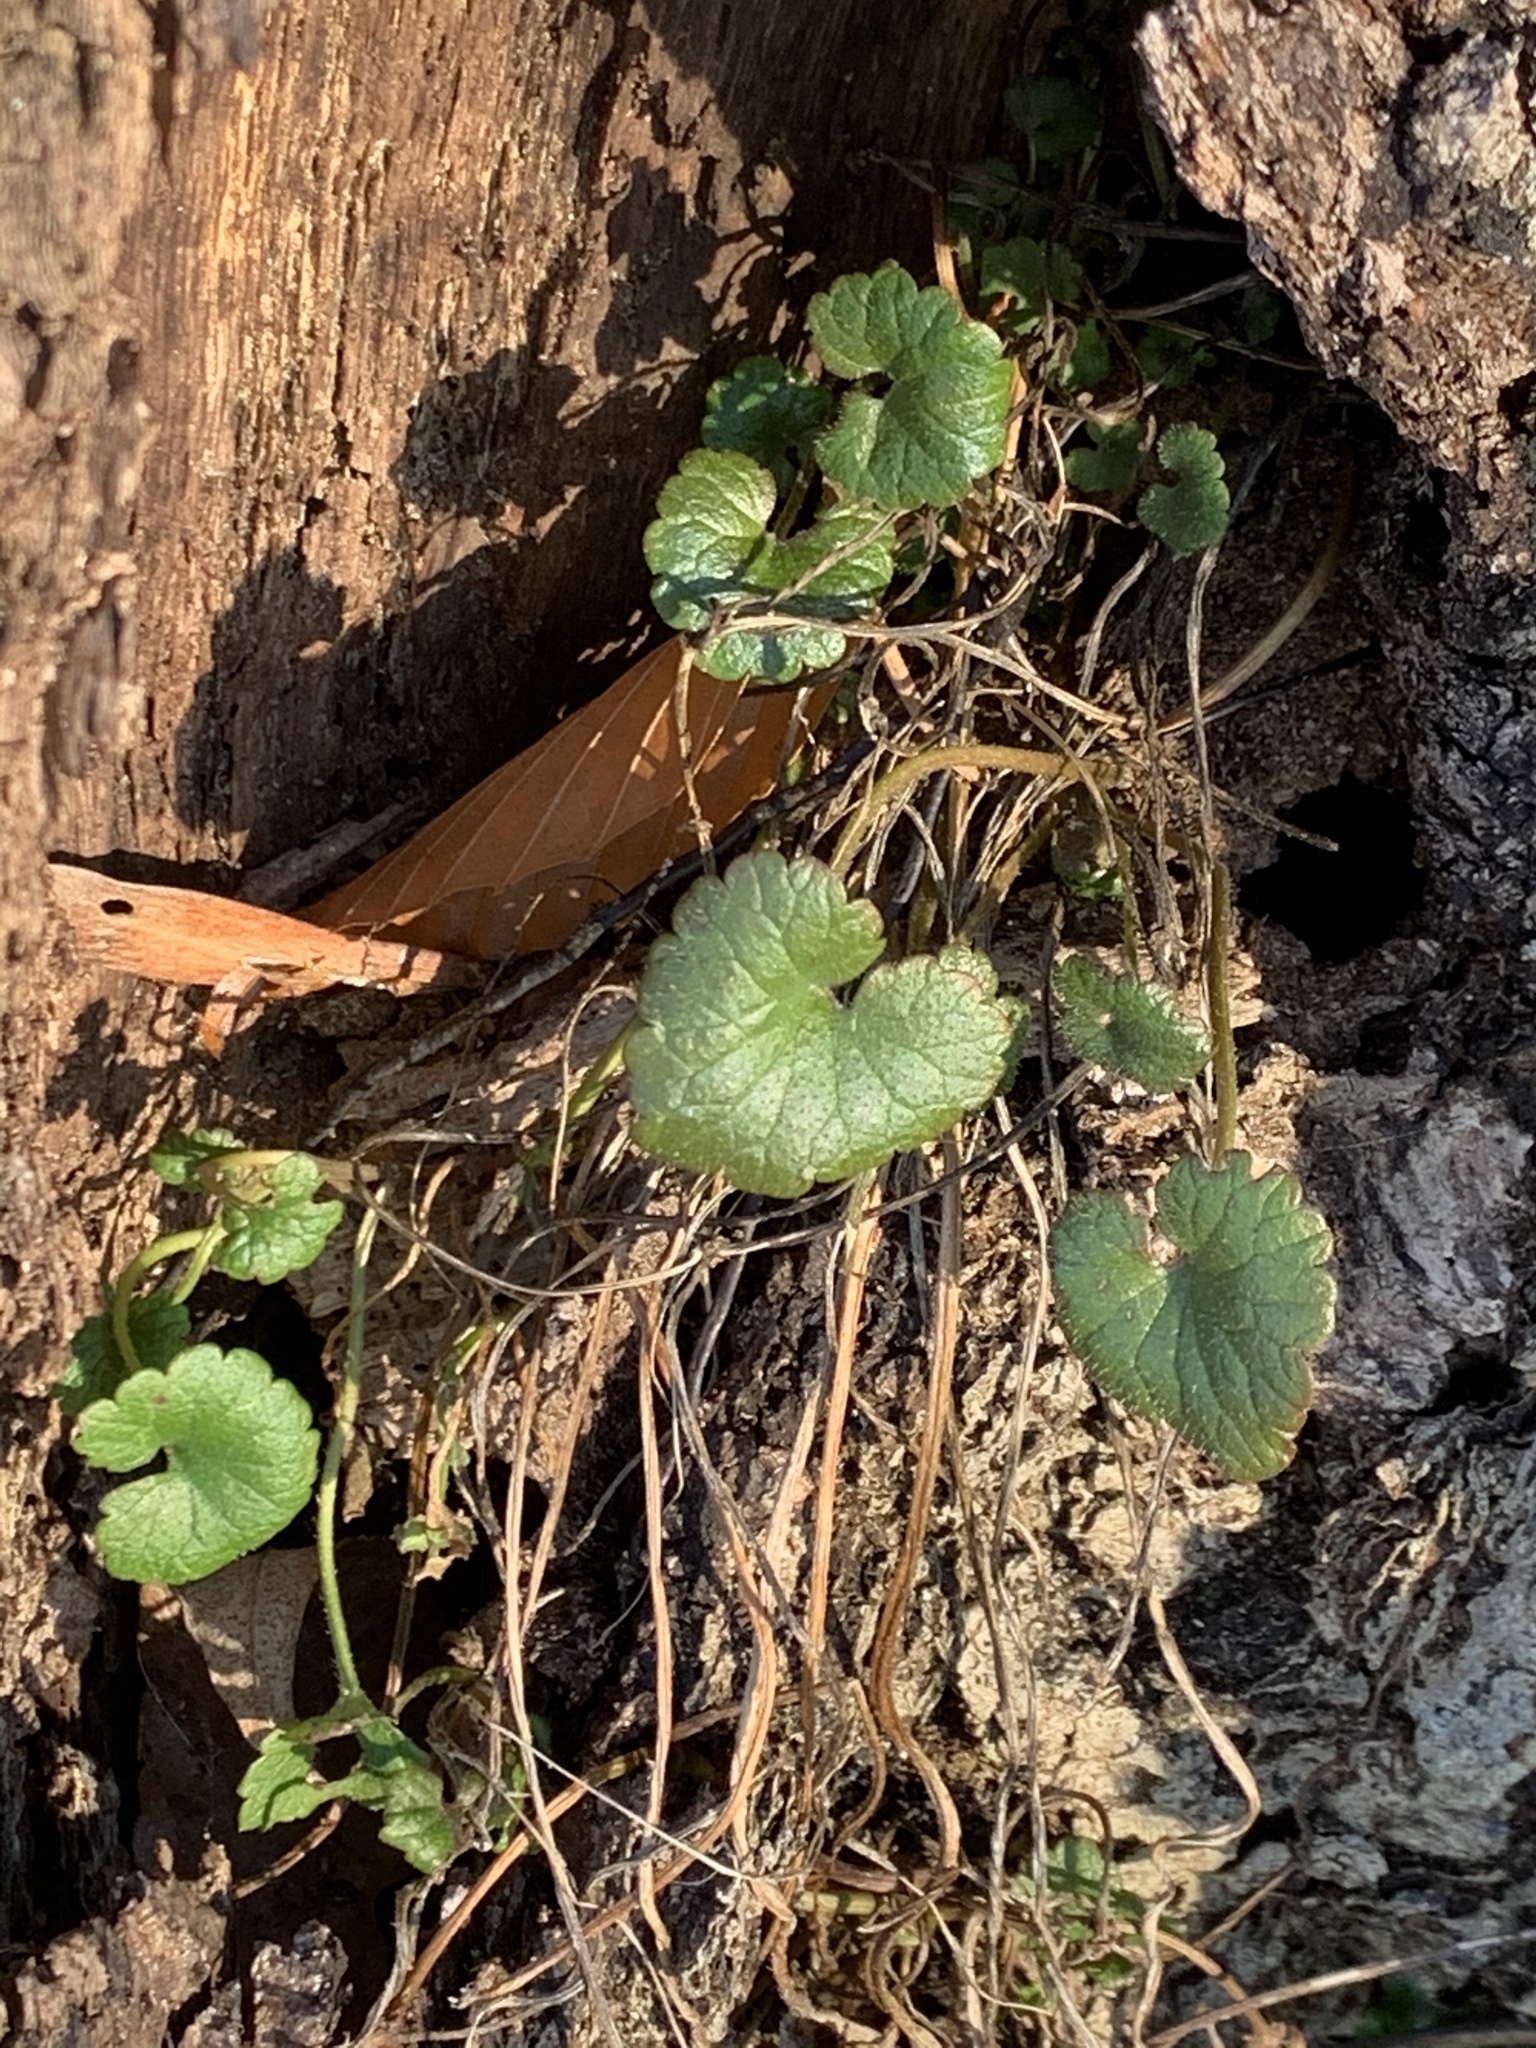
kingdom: Plantae
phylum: Tracheophyta
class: Magnoliopsida
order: Lamiales
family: Lamiaceae
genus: Glechoma
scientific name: Glechoma hederacea
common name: Ground ivy
